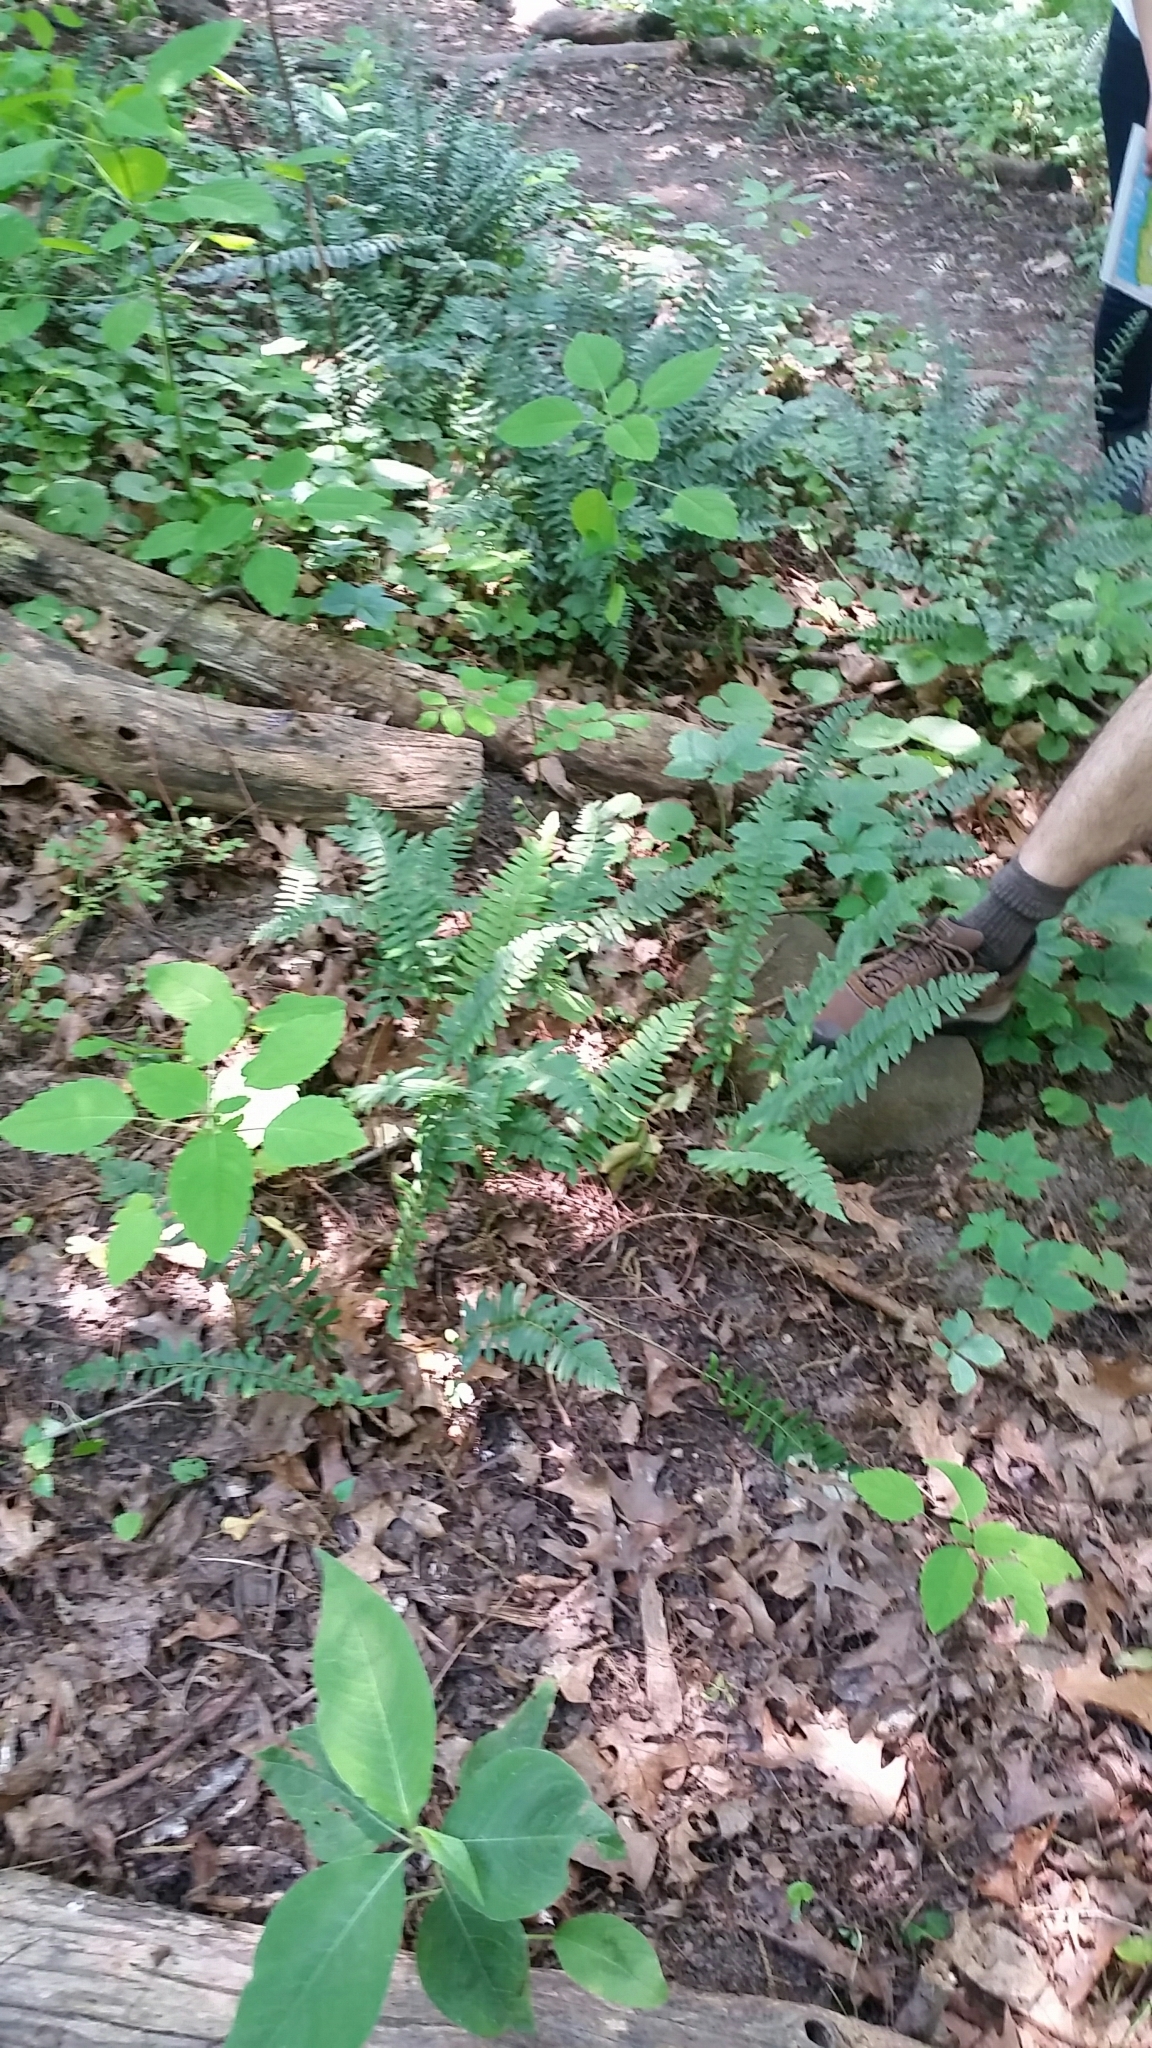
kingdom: Plantae
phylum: Tracheophyta
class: Polypodiopsida
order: Polypodiales
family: Dryopteridaceae
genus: Polystichum
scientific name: Polystichum acrostichoides
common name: Christmas fern
